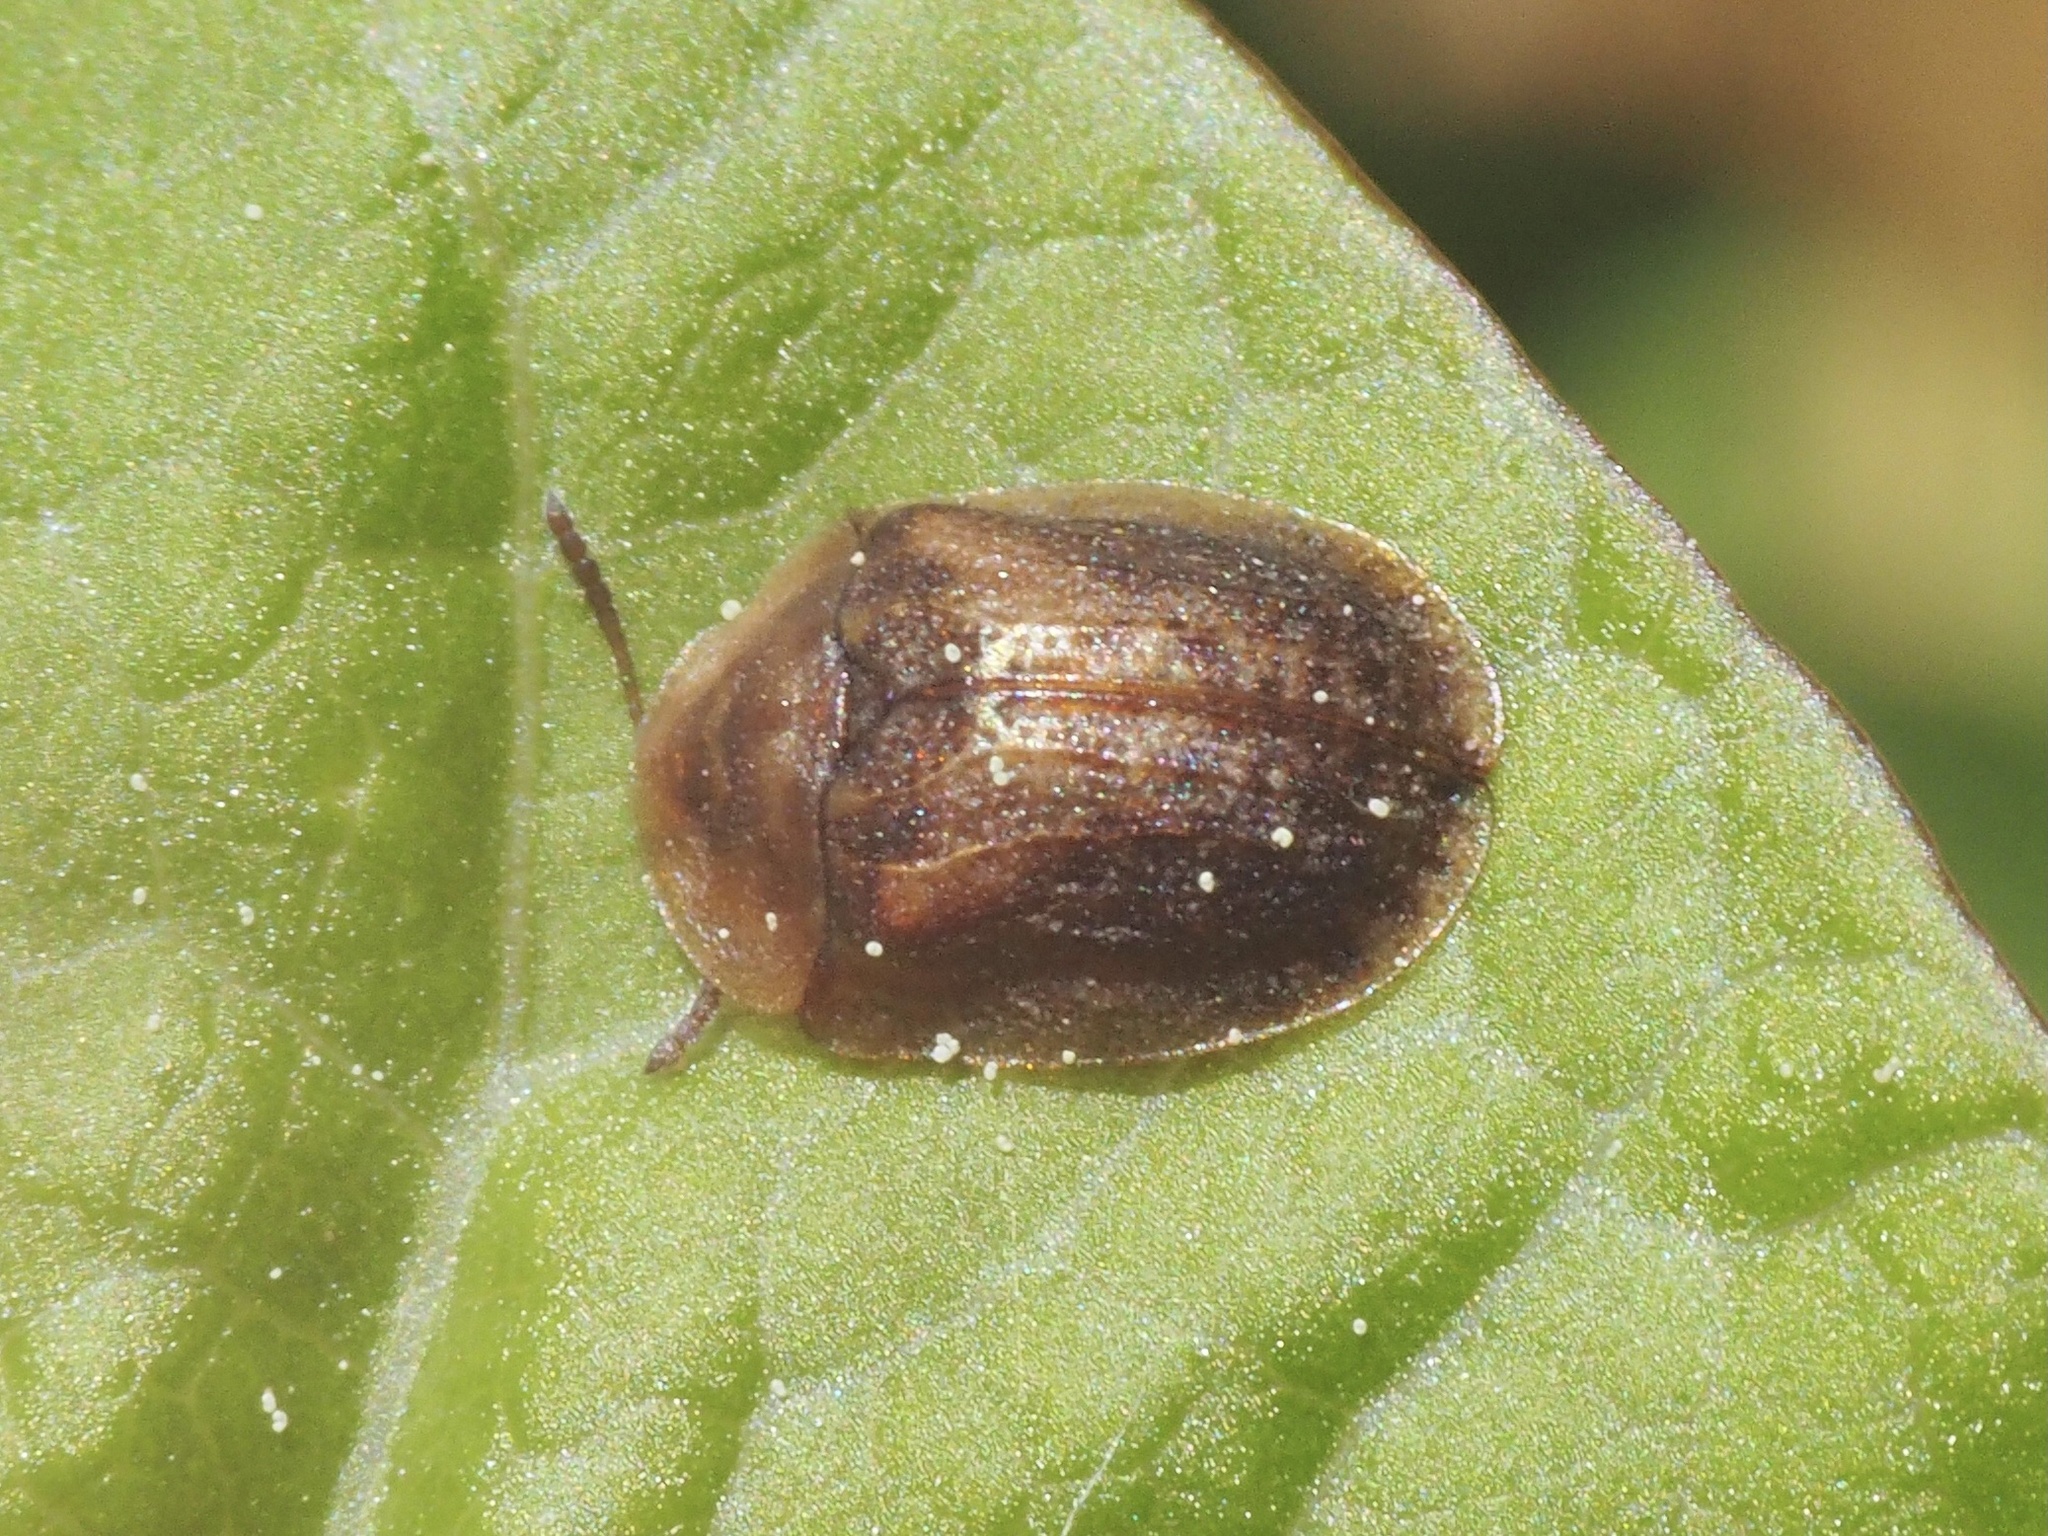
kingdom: Animalia
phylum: Arthropoda
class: Insecta
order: Coleoptera
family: Chrysomelidae
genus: Hypocassida
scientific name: Hypocassida subferruginea
